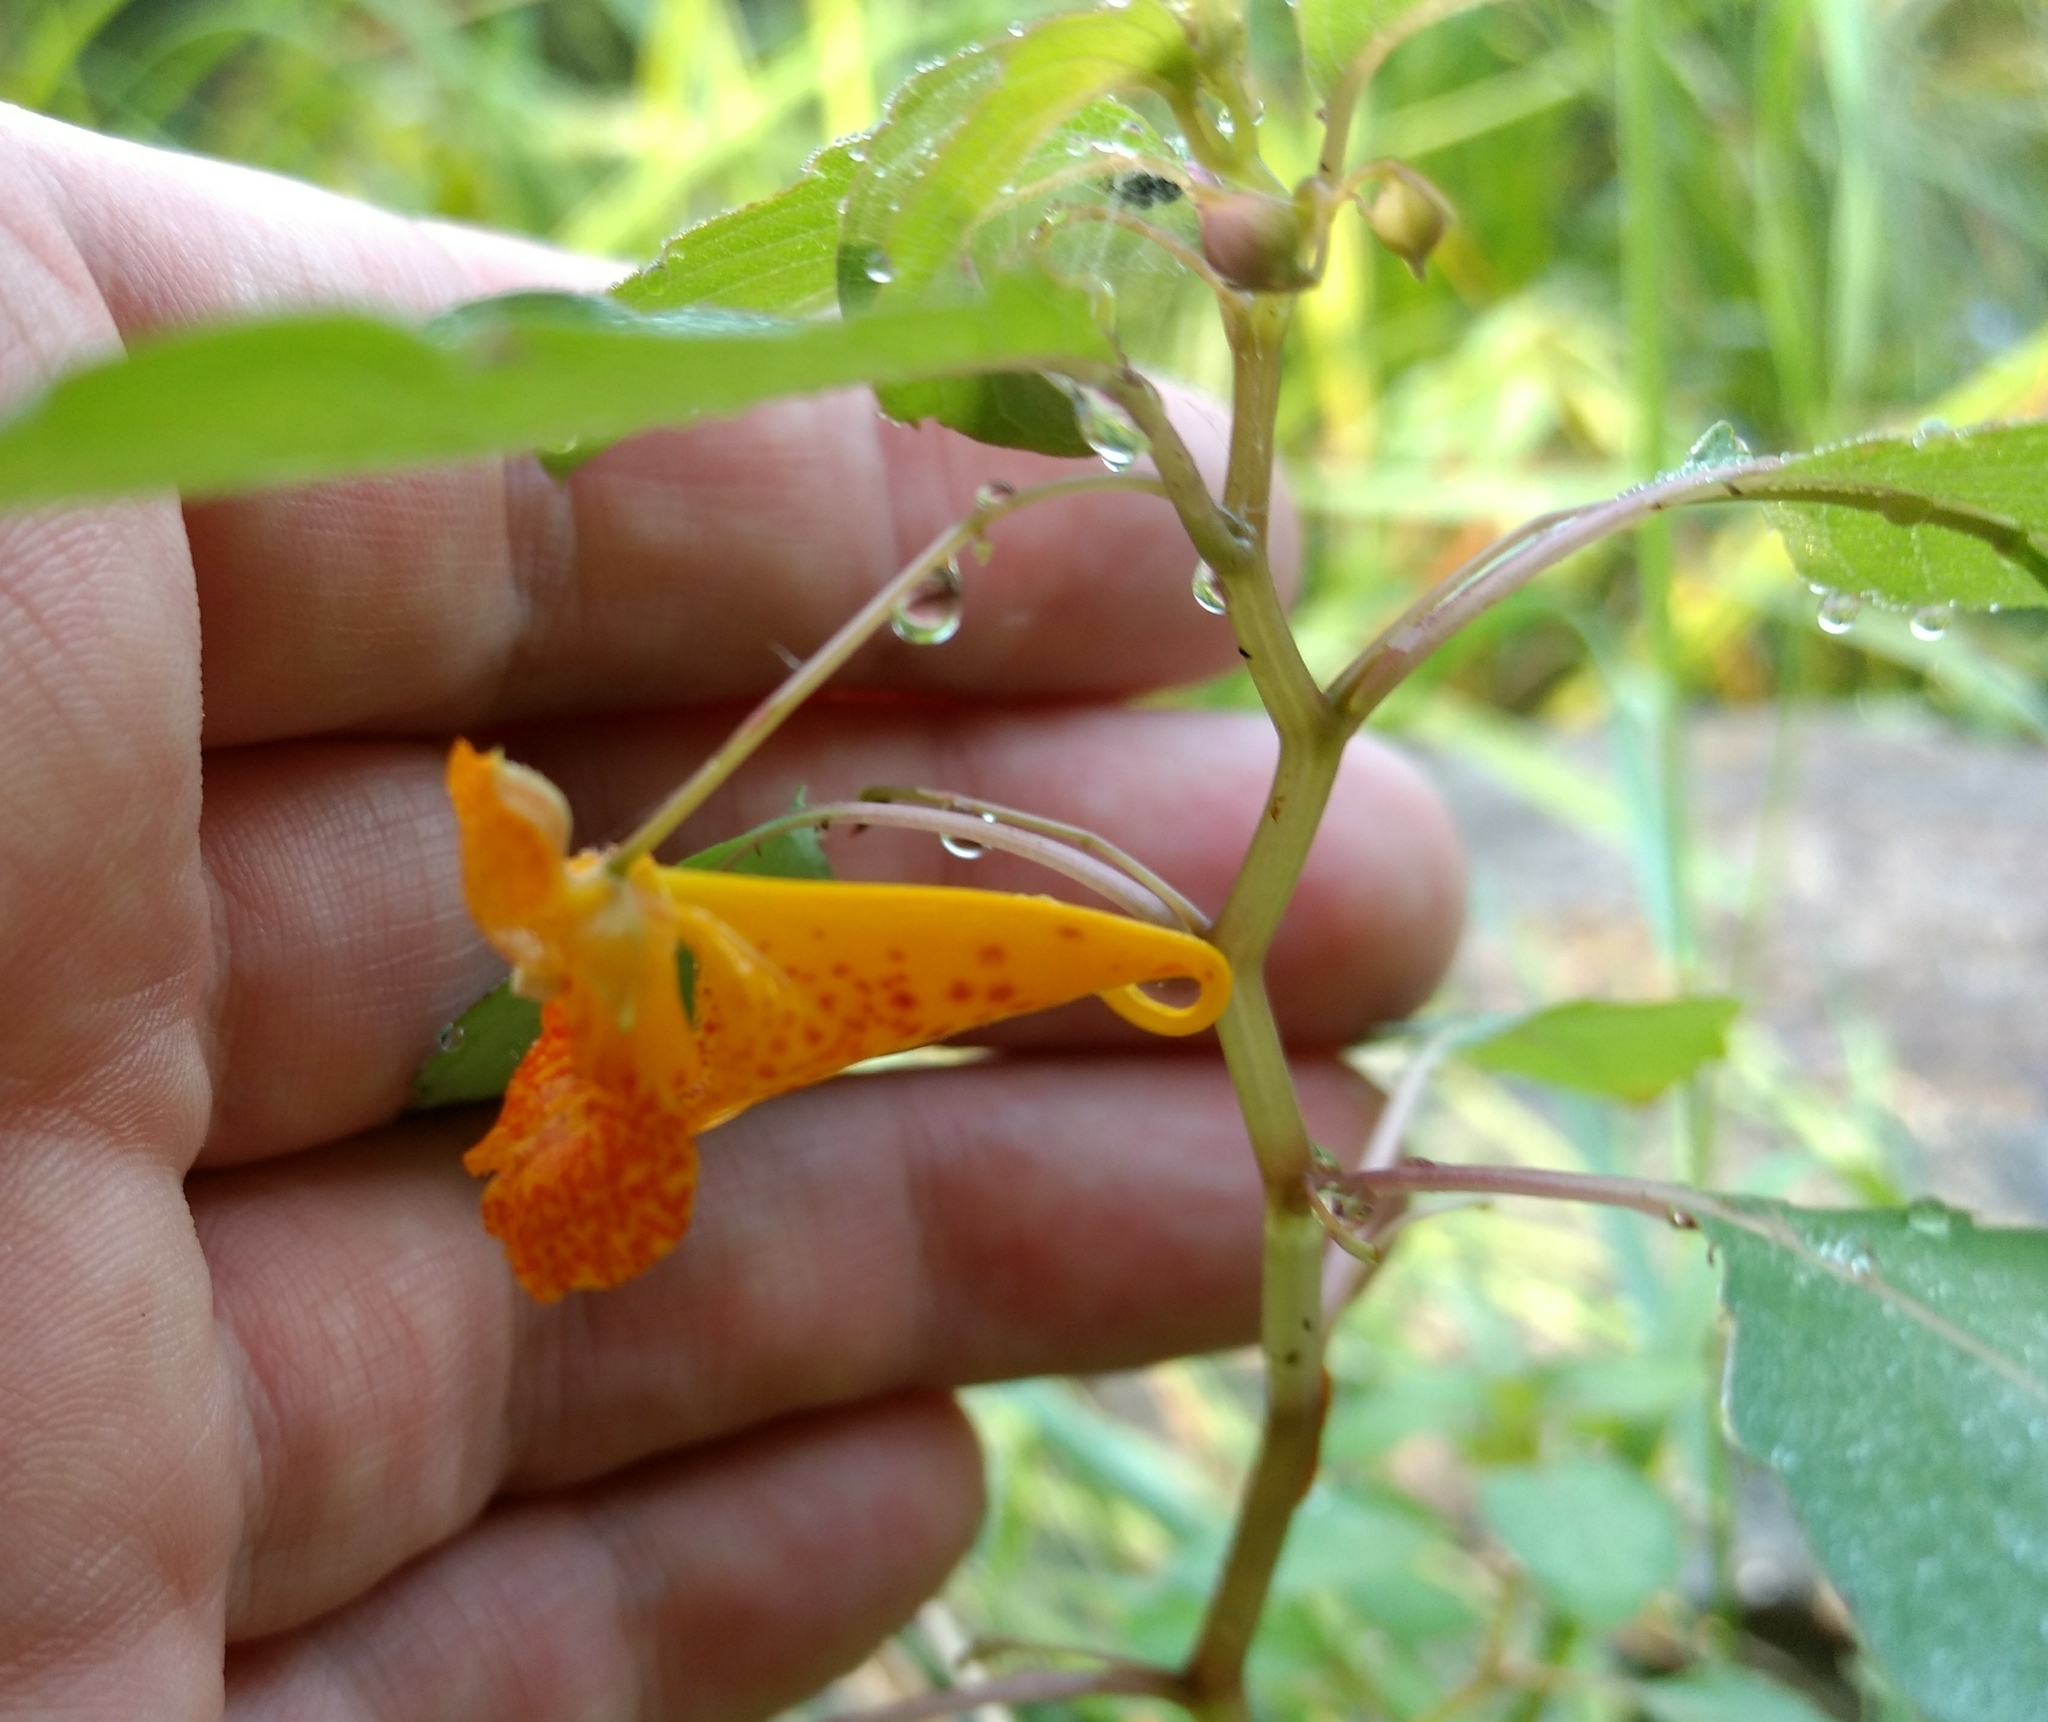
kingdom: Plantae
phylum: Tracheophyta
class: Magnoliopsida
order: Ericales
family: Balsaminaceae
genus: Impatiens
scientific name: Impatiens capensis
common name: Orange balsam
